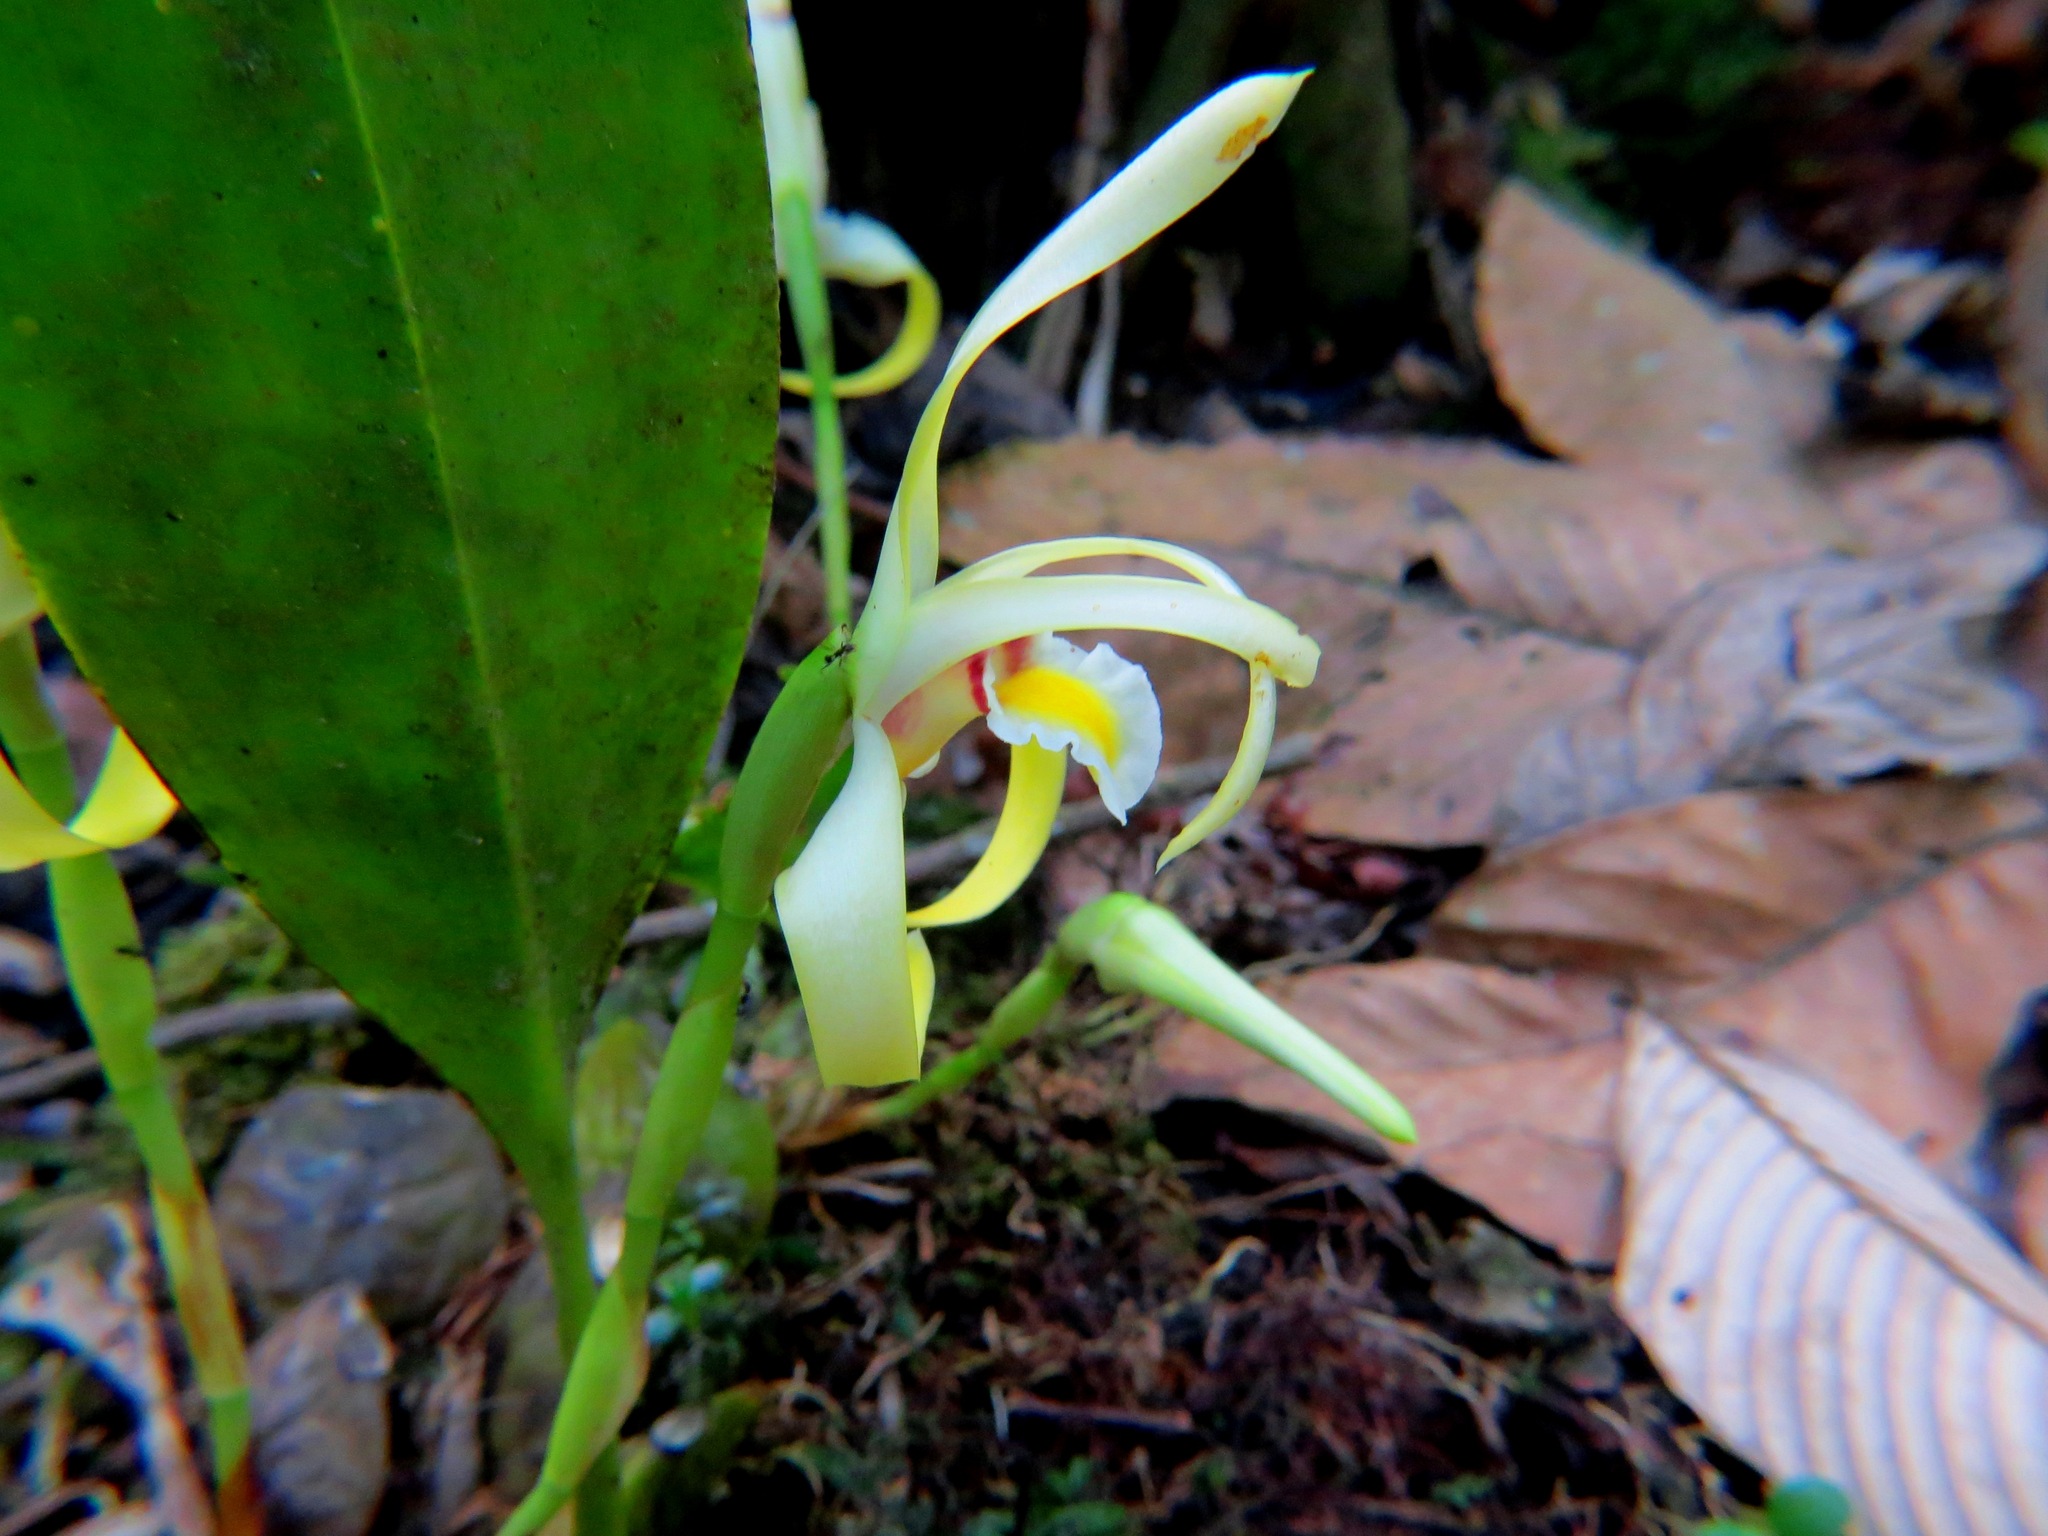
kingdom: Plantae
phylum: Tracheophyta
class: Liliopsida
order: Asparagales
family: Orchidaceae
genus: Maxillaria
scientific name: Maxillaria endresii
